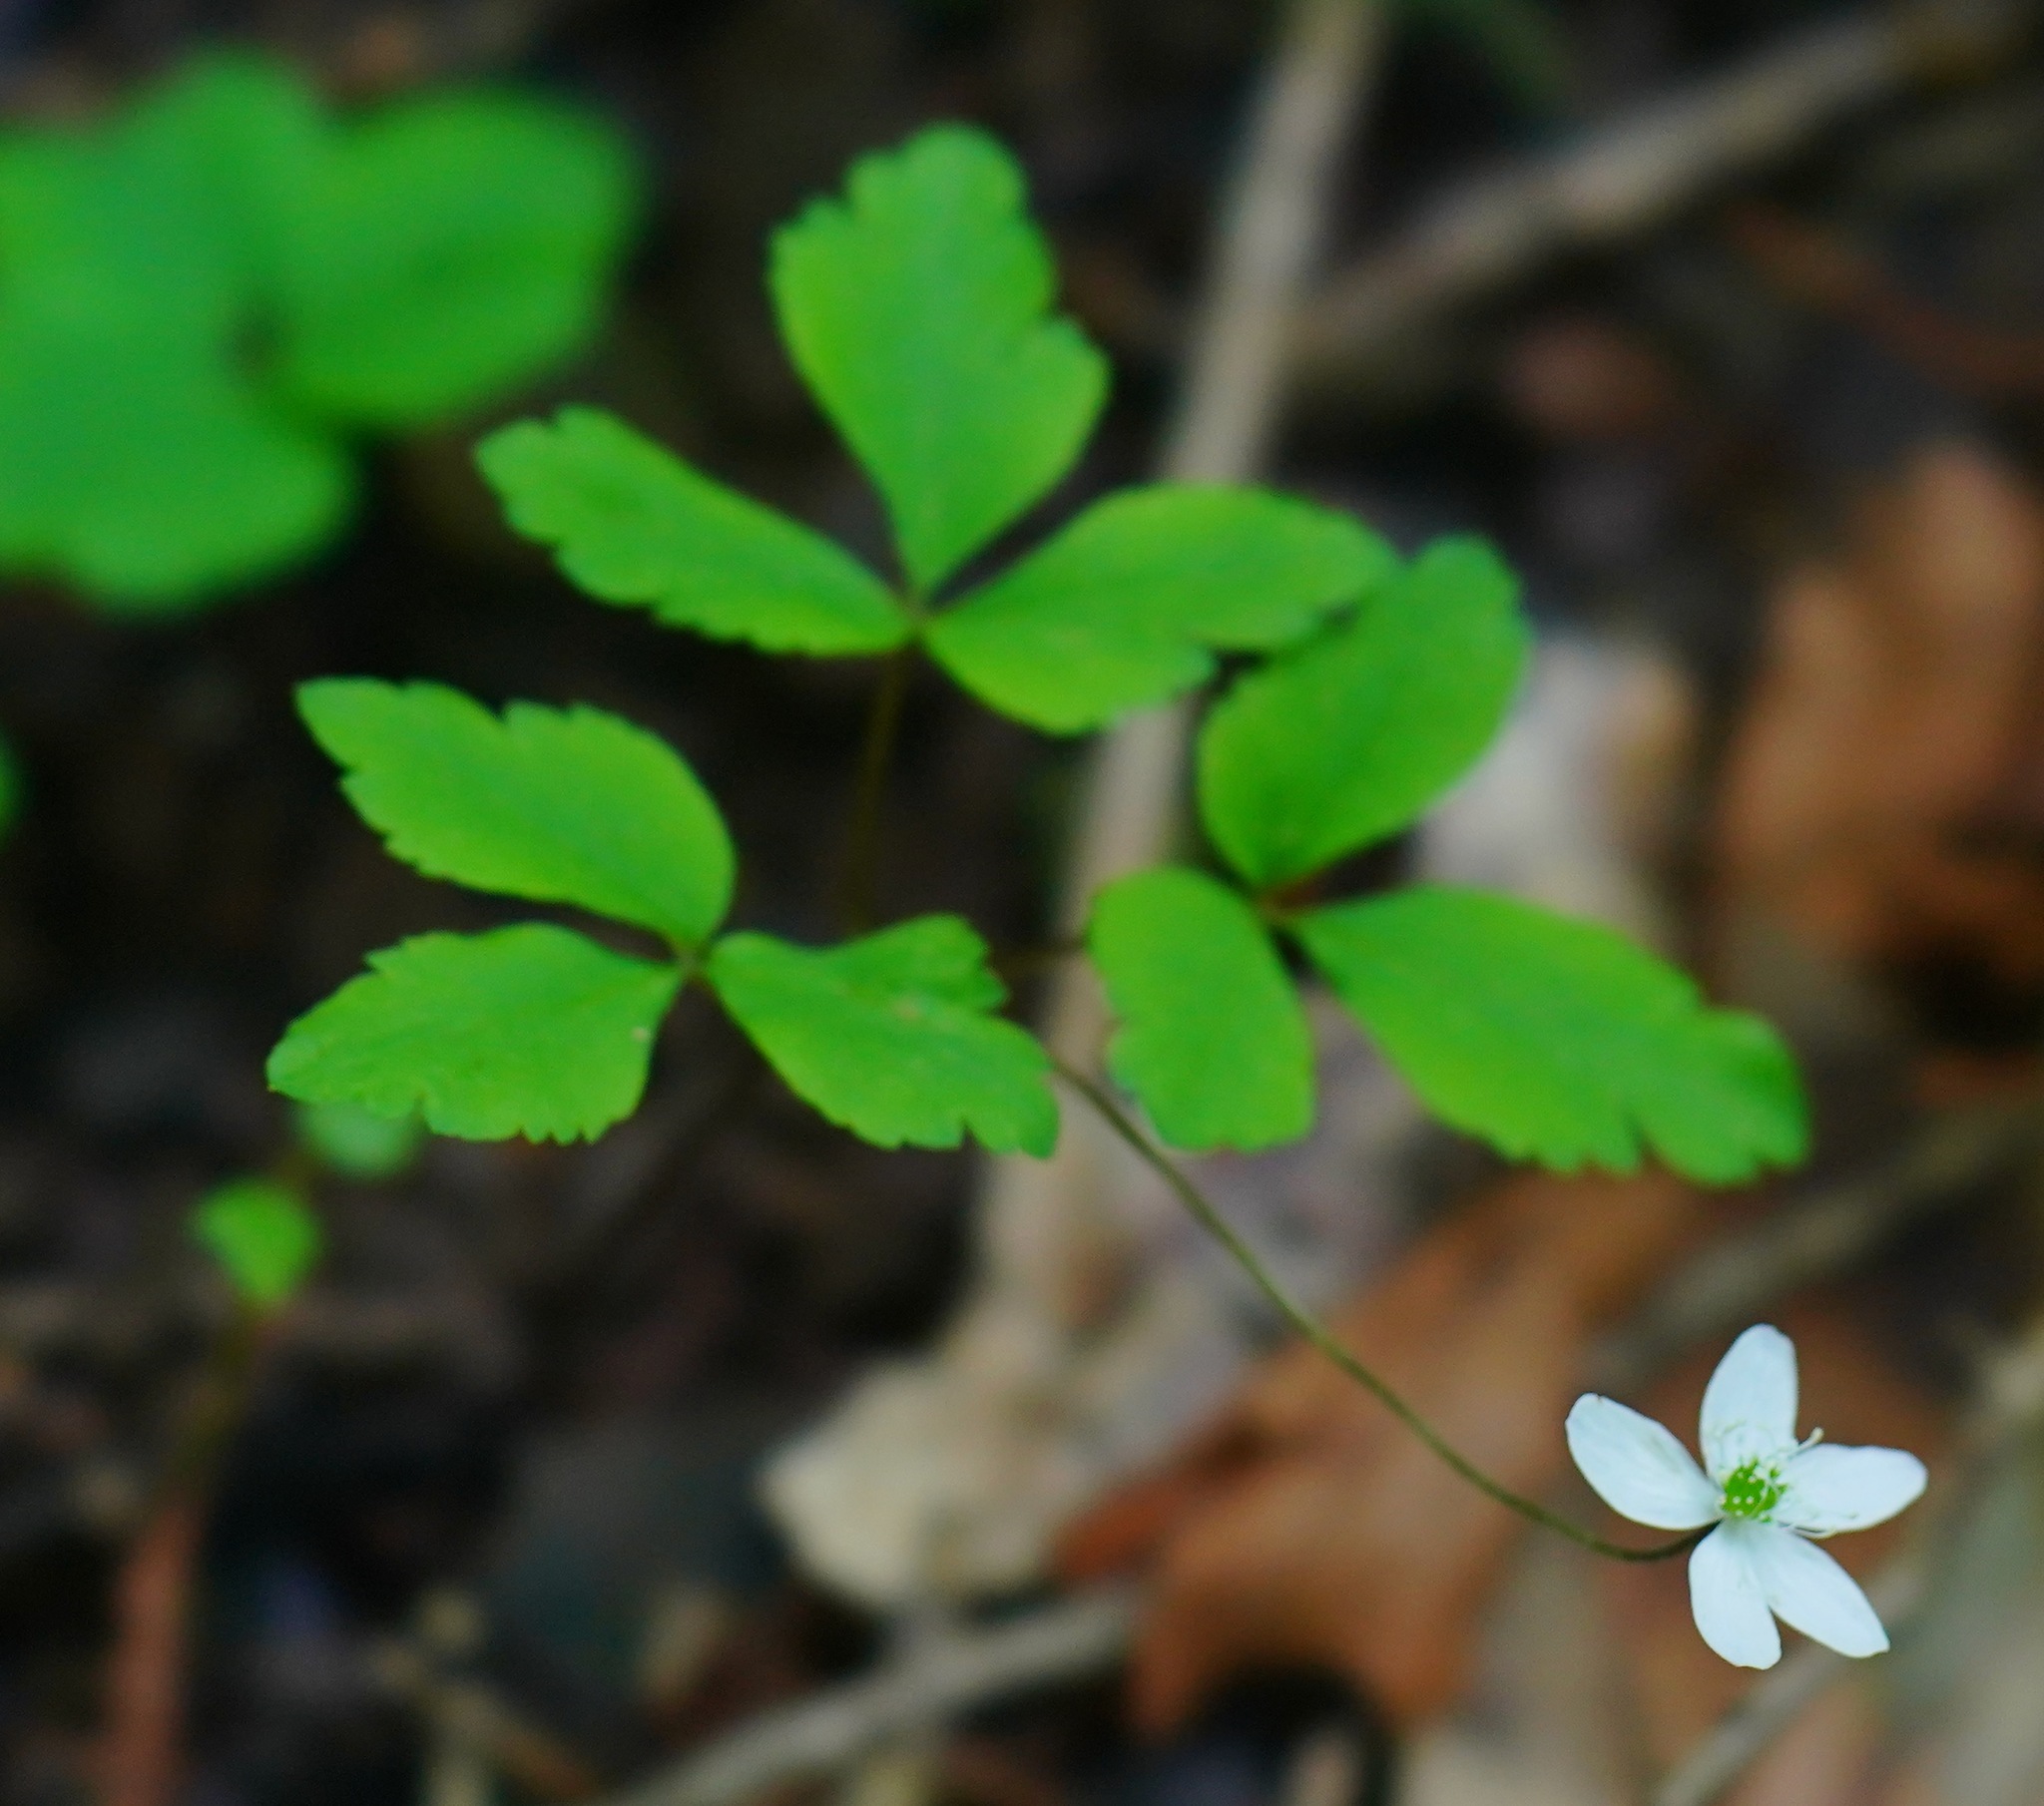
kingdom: Plantae
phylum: Tracheophyta
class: Magnoliopsida
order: Ranunculales
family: Ranunculaceae
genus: Anemone
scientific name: Anemone
